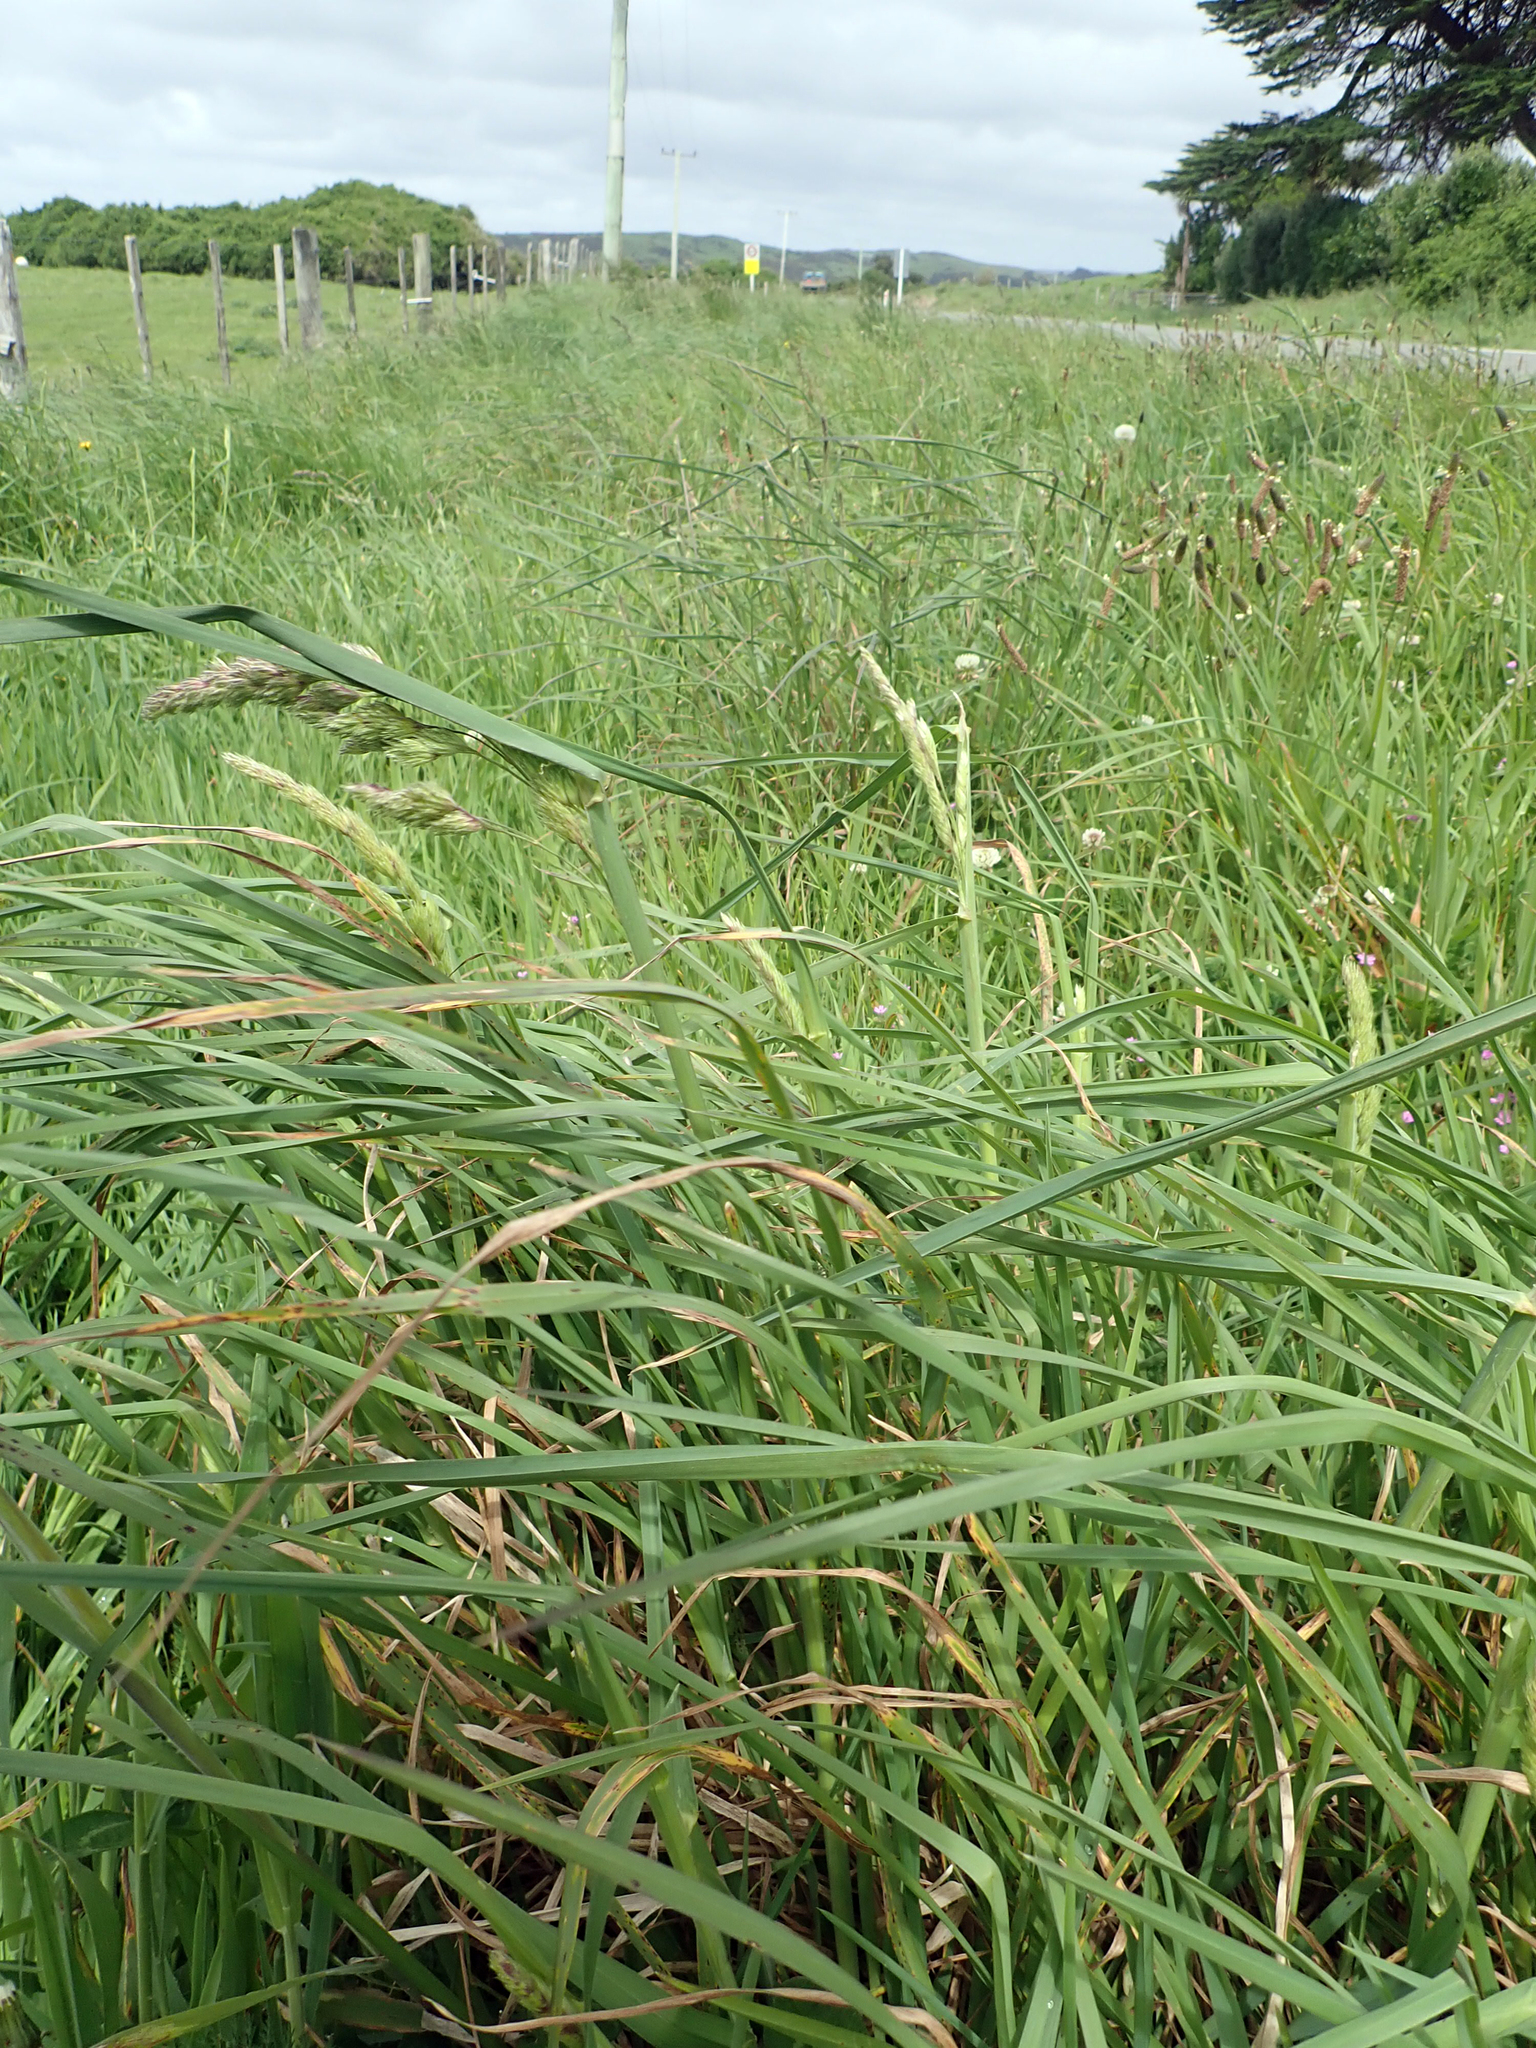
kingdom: Plantae
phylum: Tracheophyta
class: Liliopsida
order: Poales
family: Poaceae
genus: Dactylis
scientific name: Dactylis glomerata
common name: Orchardgrass
